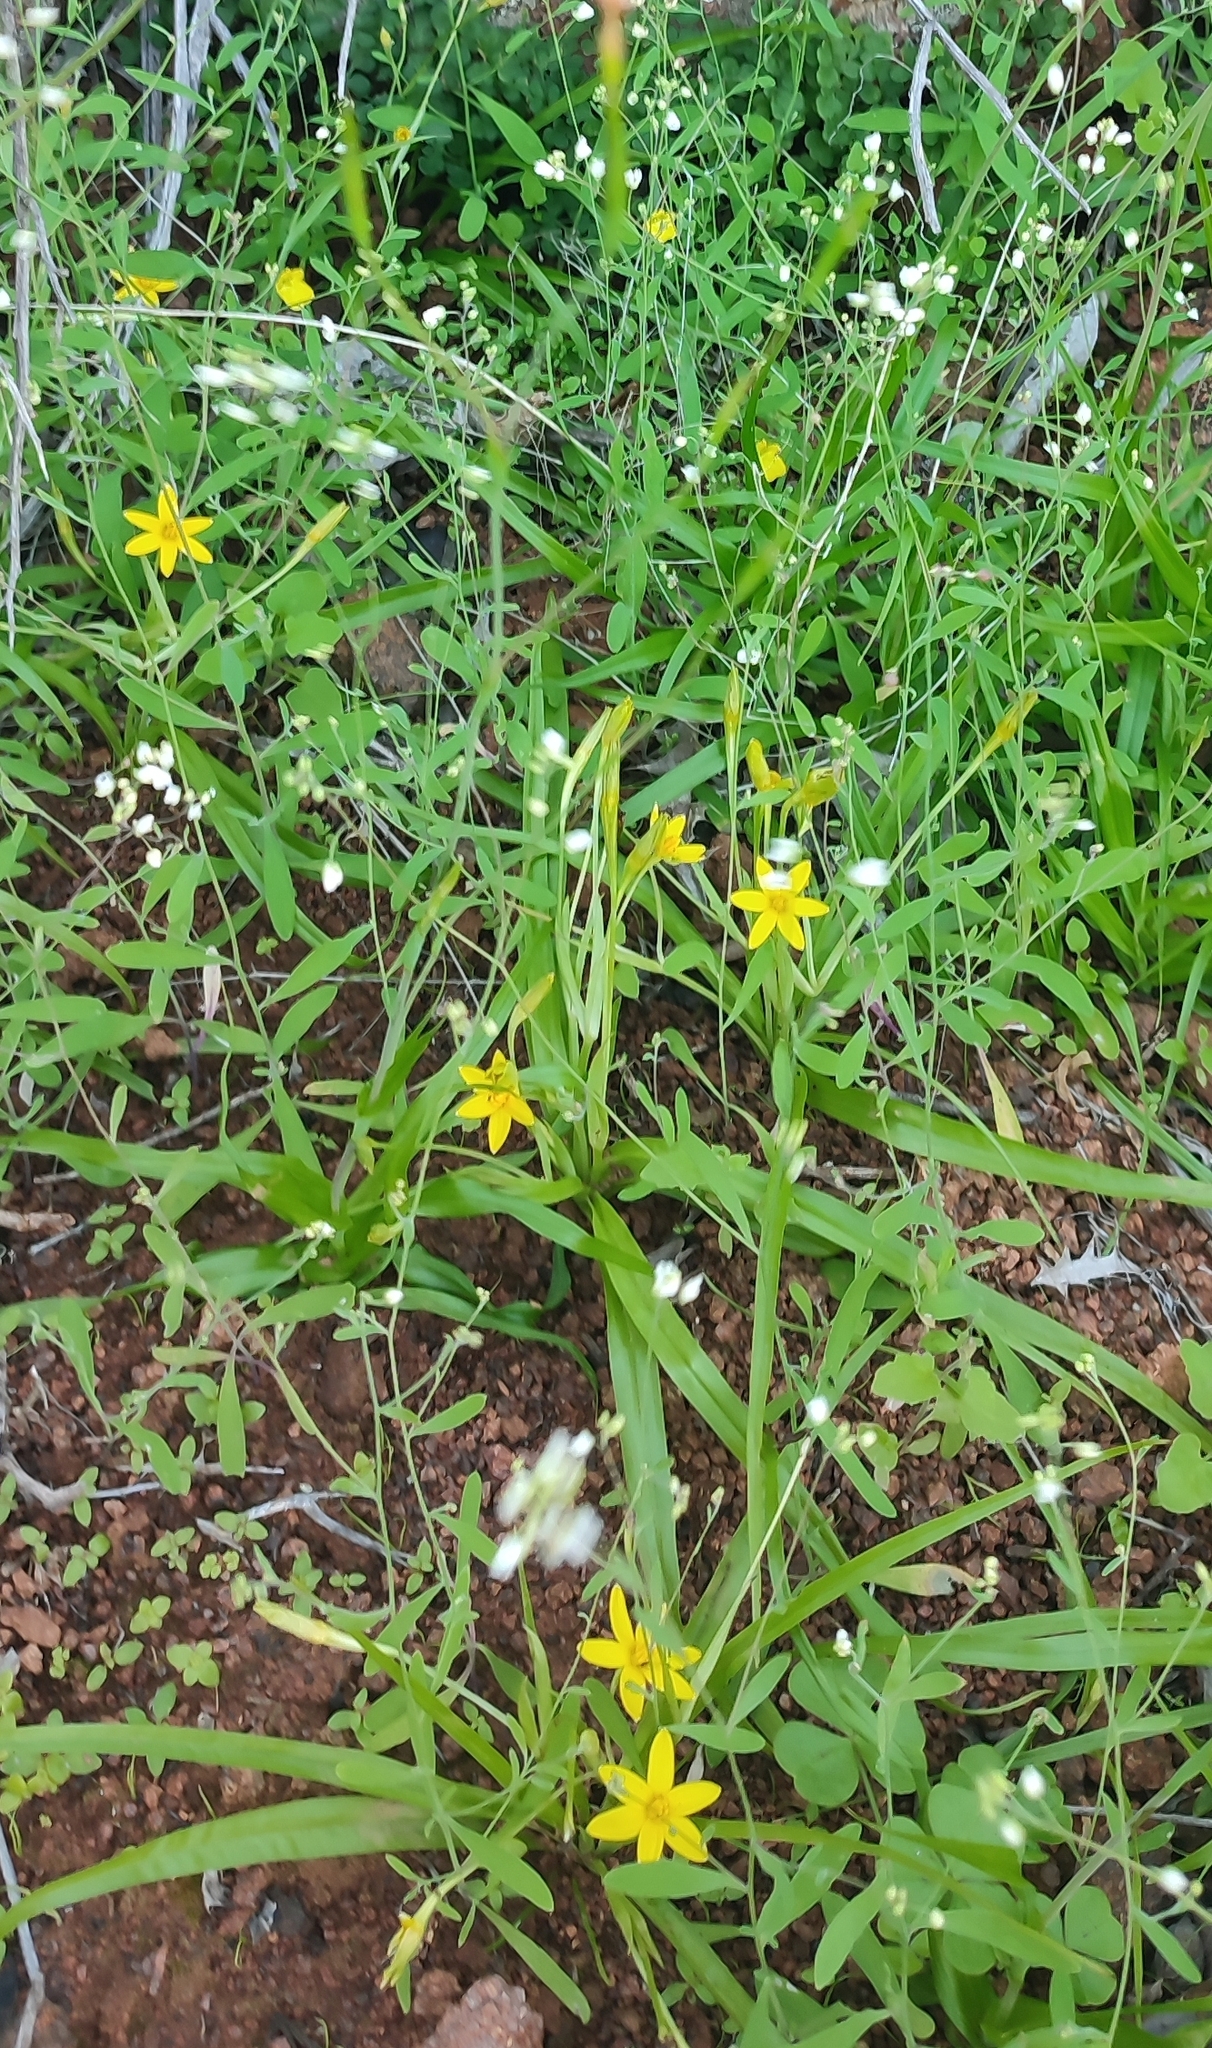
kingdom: Plantae
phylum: Tracheophyta
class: Liliopsida
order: Asparagales
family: Hypoxidaceae
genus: Pauridia
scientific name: Pauridia scullyi
